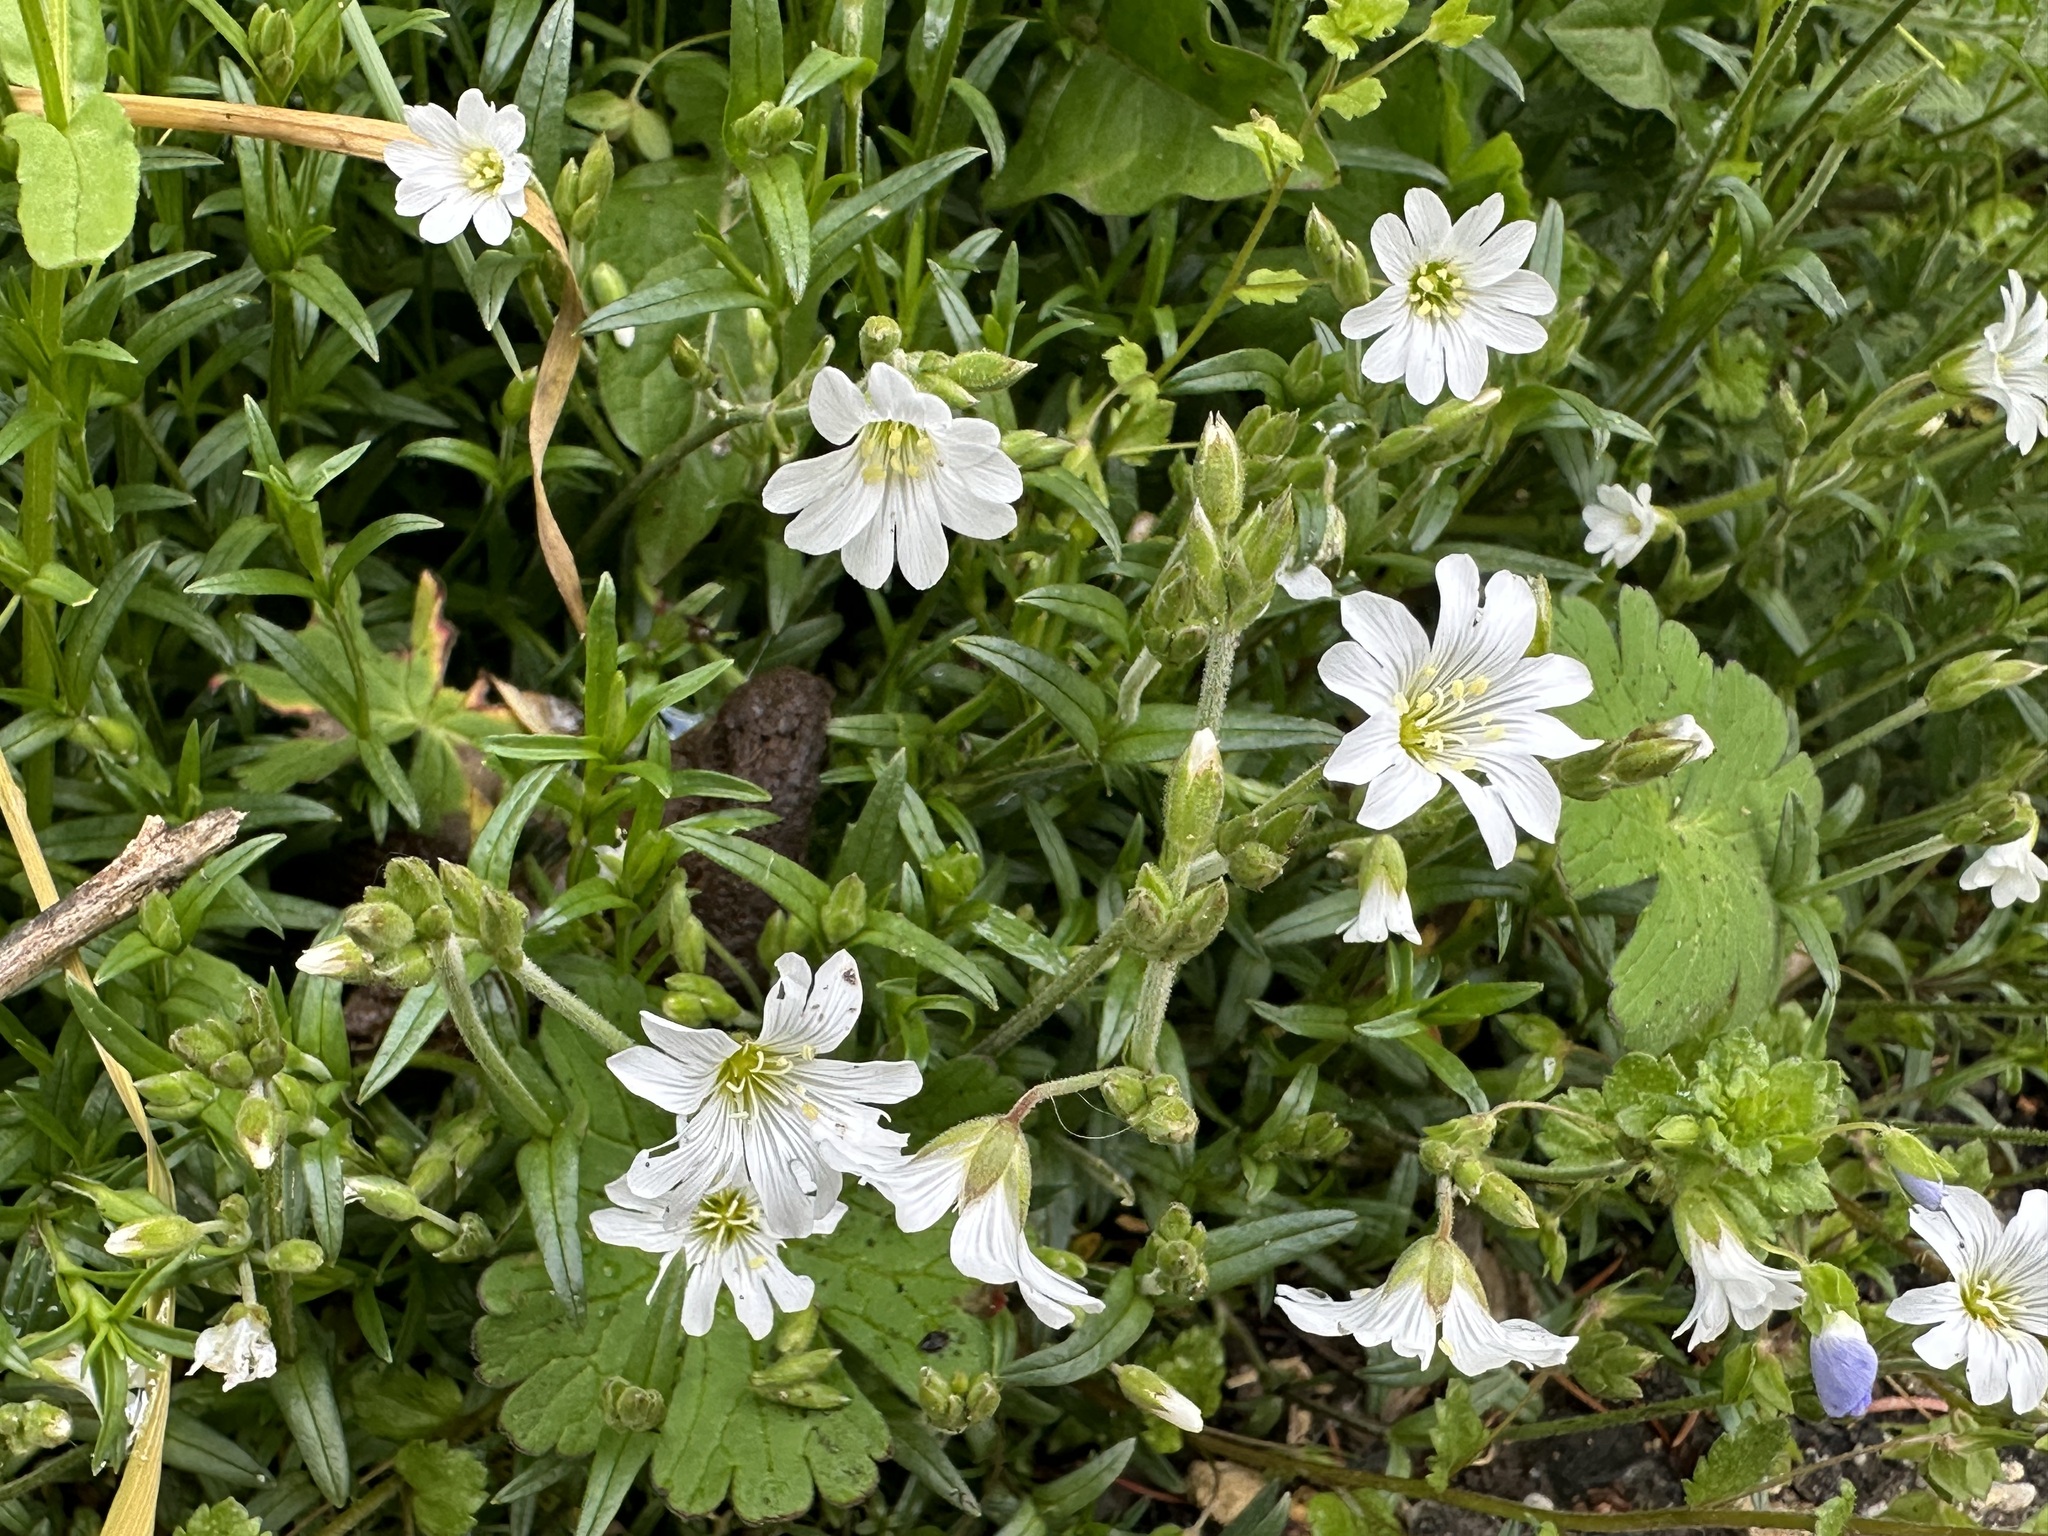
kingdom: Plantae
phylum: Tracheophyta
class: Magnoliopsida
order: Caryophyllales
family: Caryophyllaceae
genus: Cerastium
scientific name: Cerastium arvense
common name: Field mouse-ear
